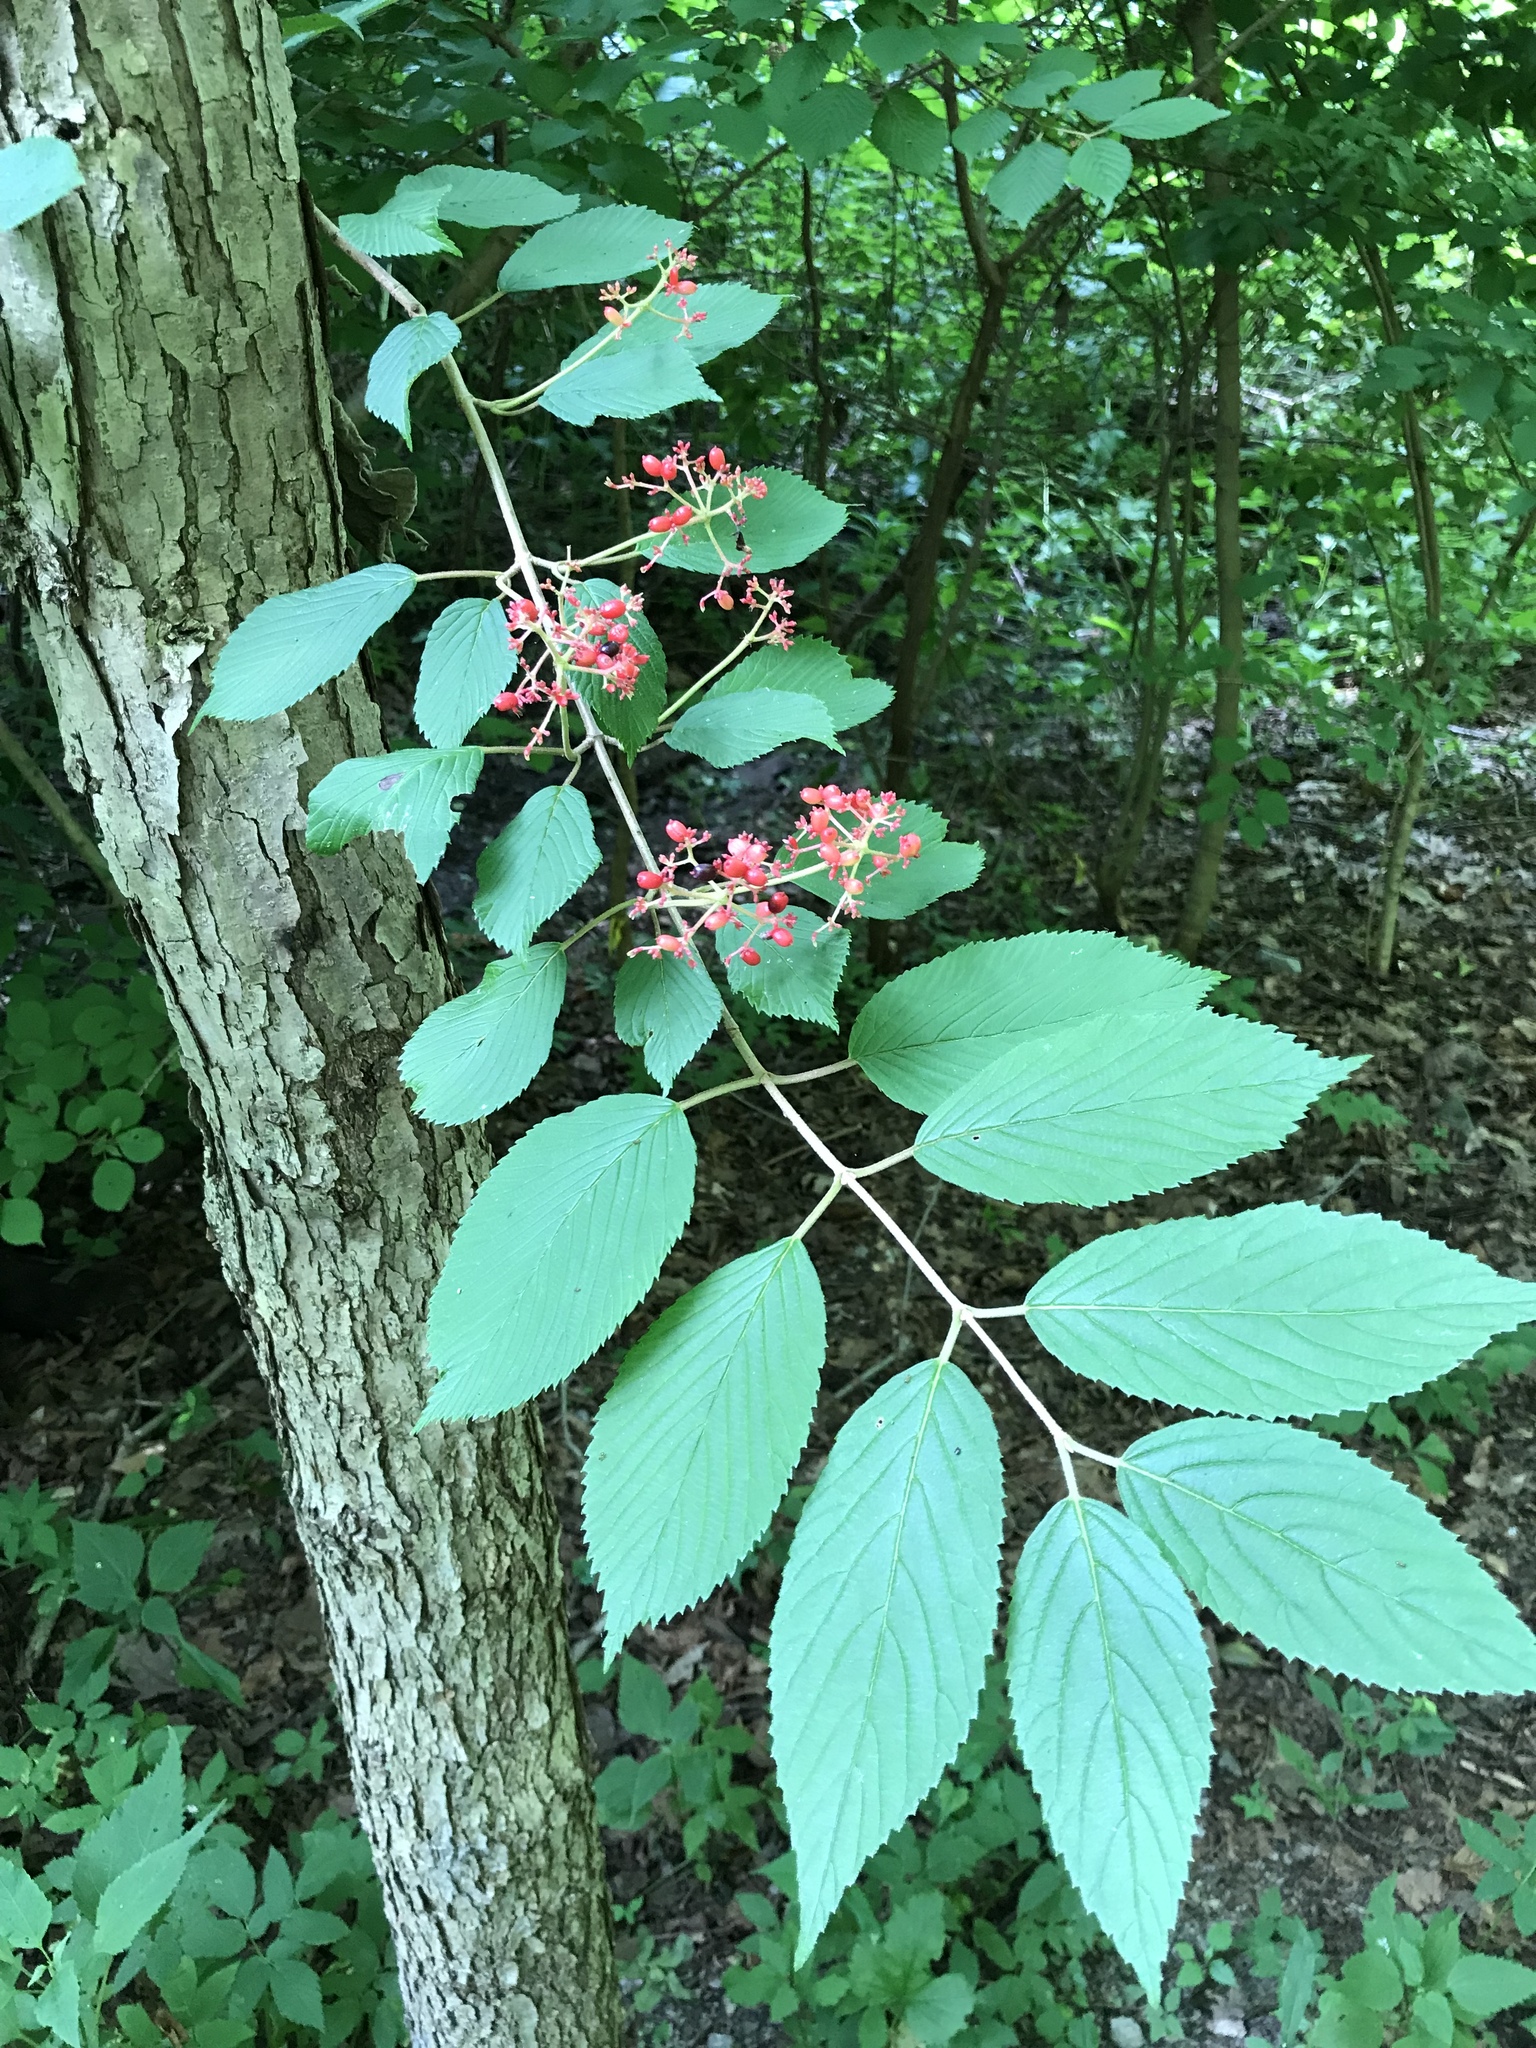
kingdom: Plantae
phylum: Tracheophyta
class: Magnoliopsida
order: Dipsacales
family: Viburnaceae
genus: Viburnum
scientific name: Viburnum plicatum
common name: Japanese snowball
